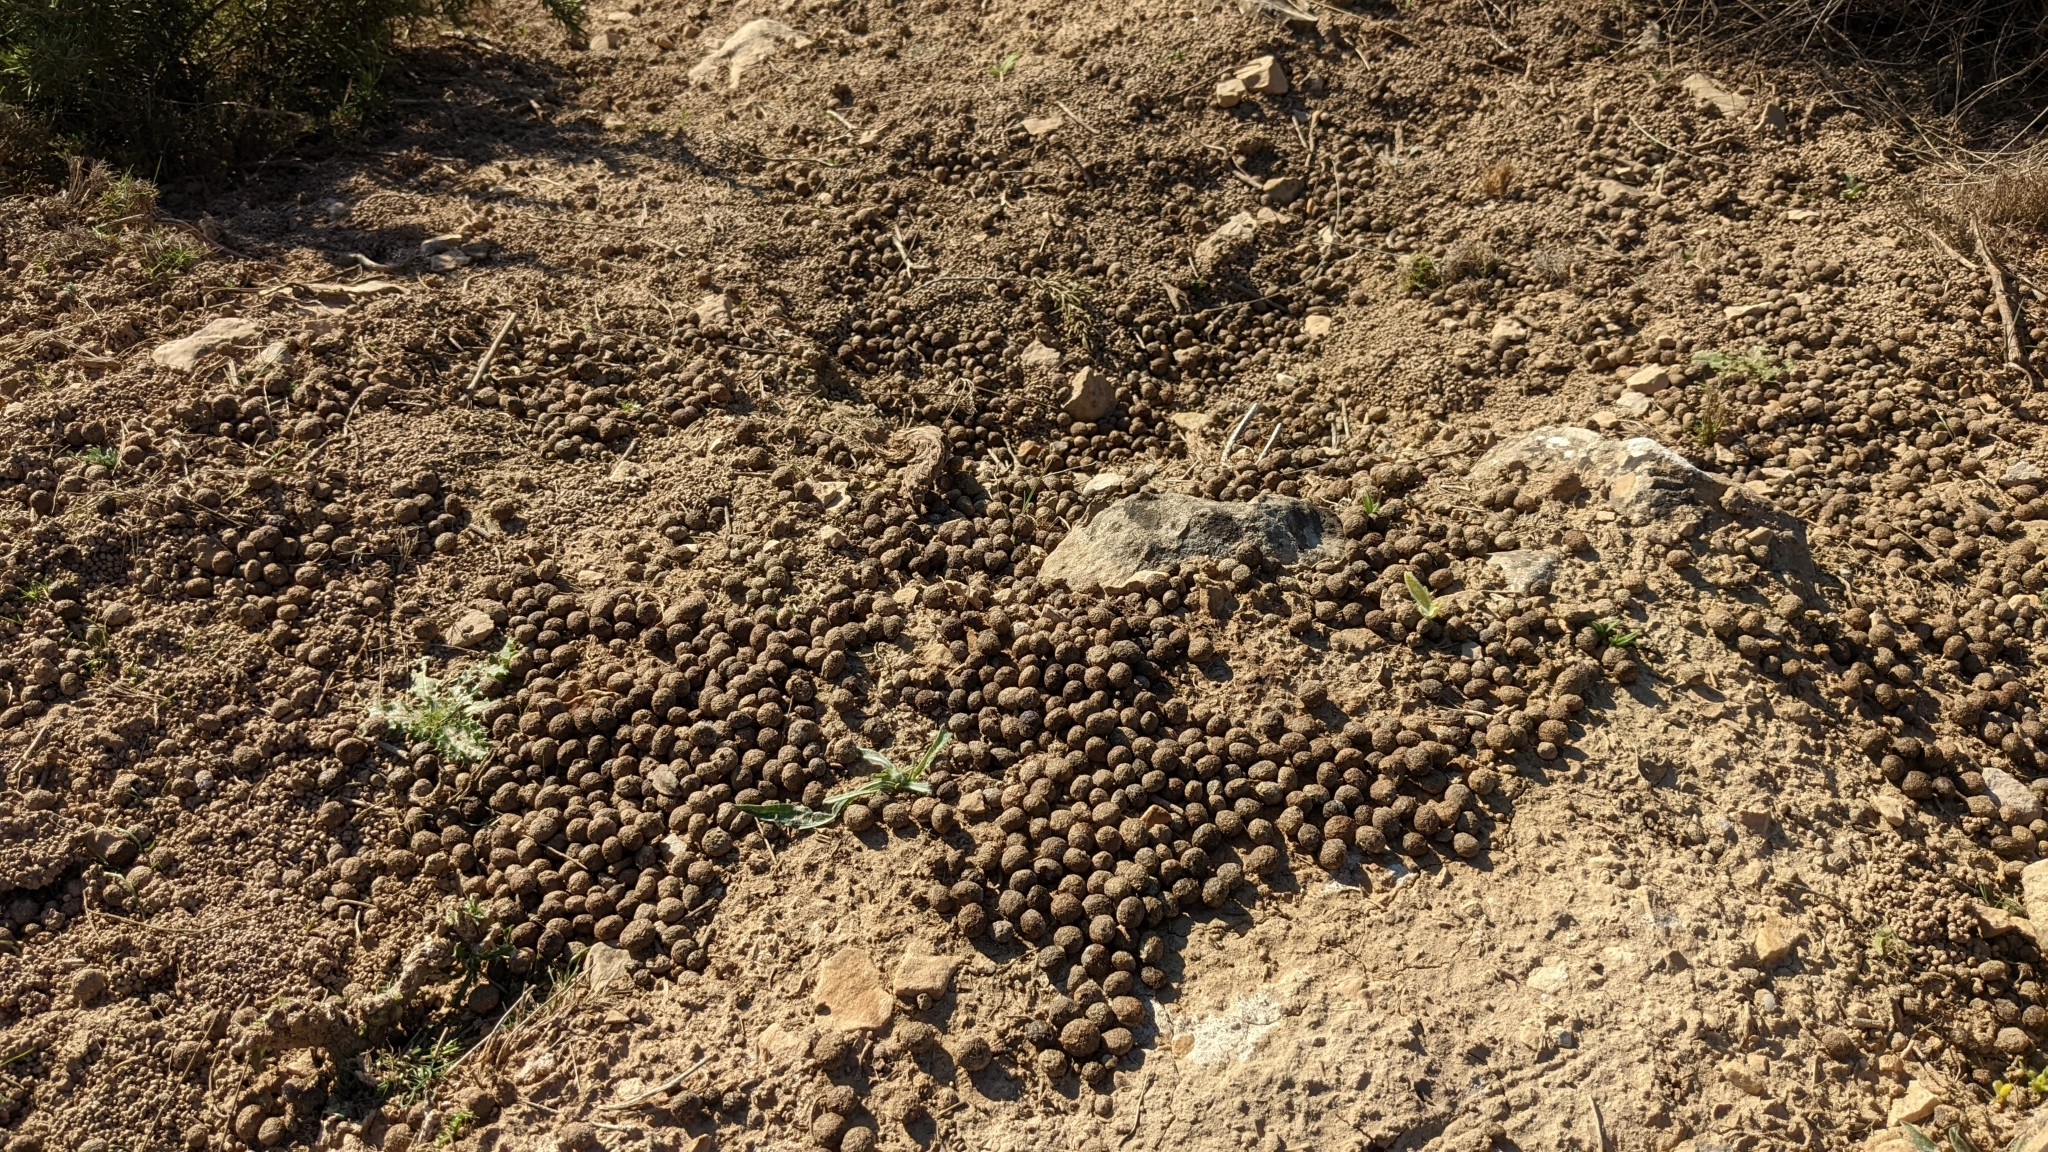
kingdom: Animalia
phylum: Chordata
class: Mammalia
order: Lagomorpha
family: Leporidae
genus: Oryctolagus
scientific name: Oryctolagus cuniculus
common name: European rabbit
